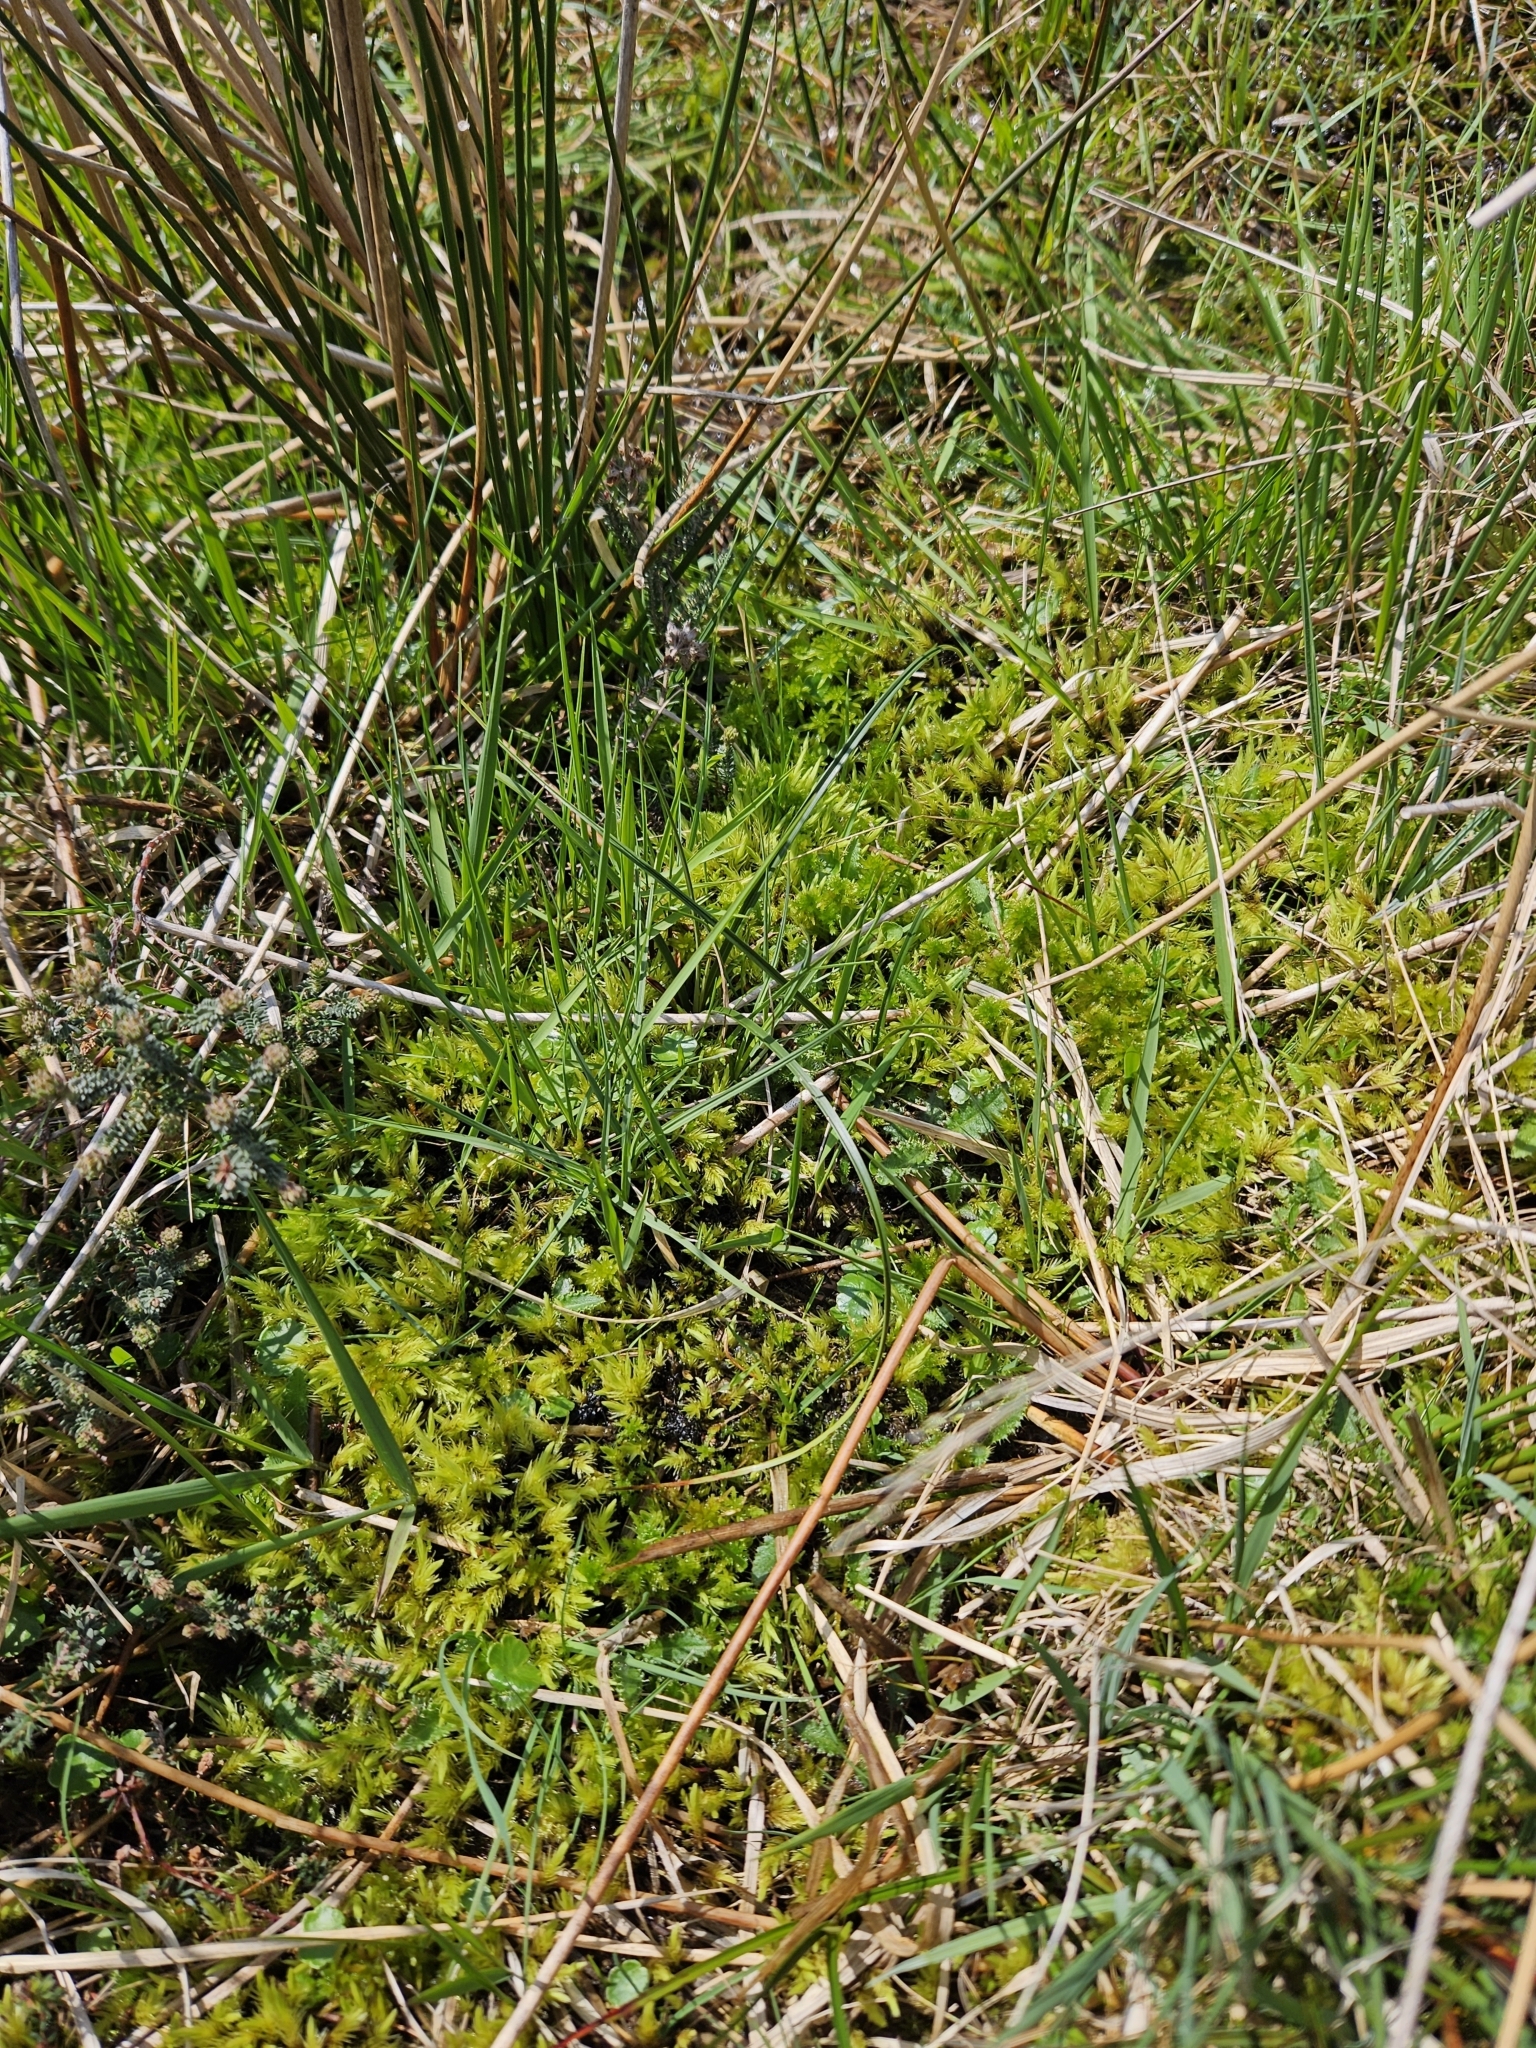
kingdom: Plantae
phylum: Bryophyta
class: Bryopsida
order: Aulacomniales
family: Aulacomniaceae
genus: Aulacomnium
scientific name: Aulacomnium palustre
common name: Bog groove-moss
